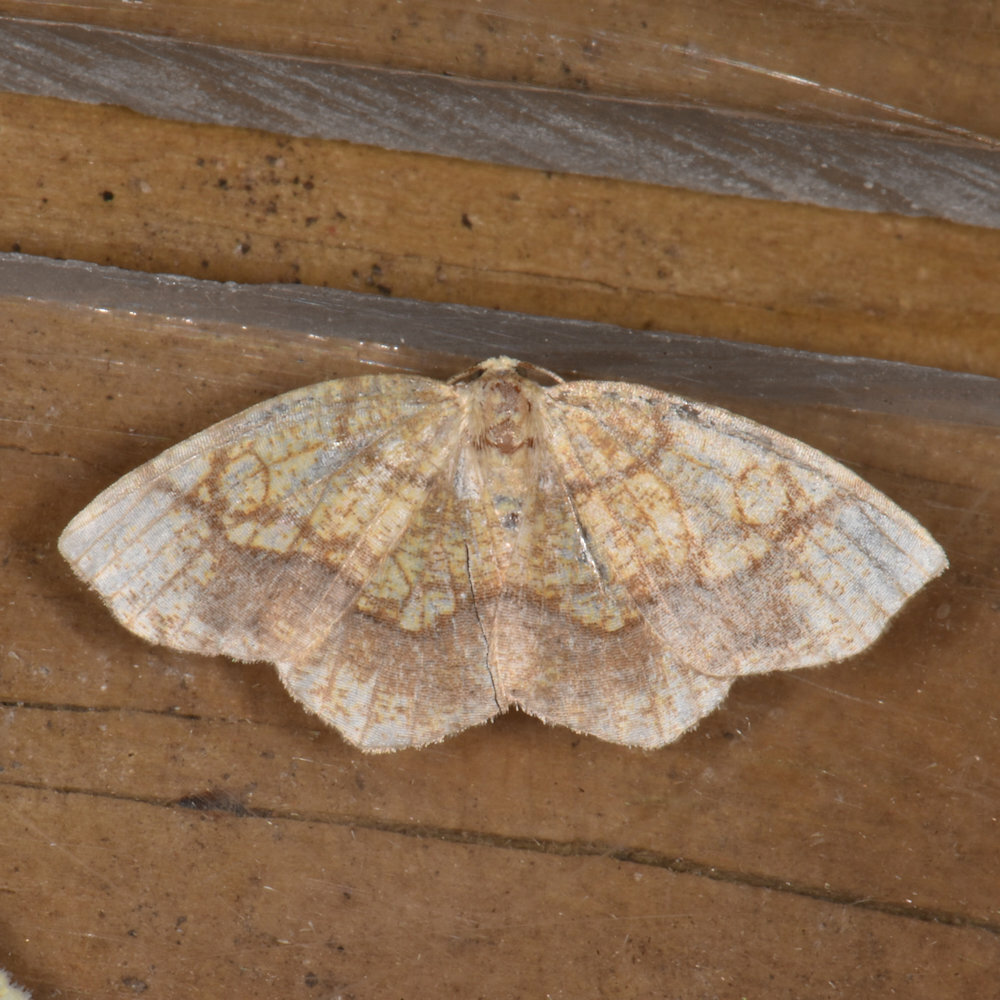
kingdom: Animalia
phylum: Arthropoda
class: Insecta
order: Lepidoptera
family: Geometridae
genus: Nematocampa
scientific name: Nematocampa resistaria
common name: Horned spanworm moth
